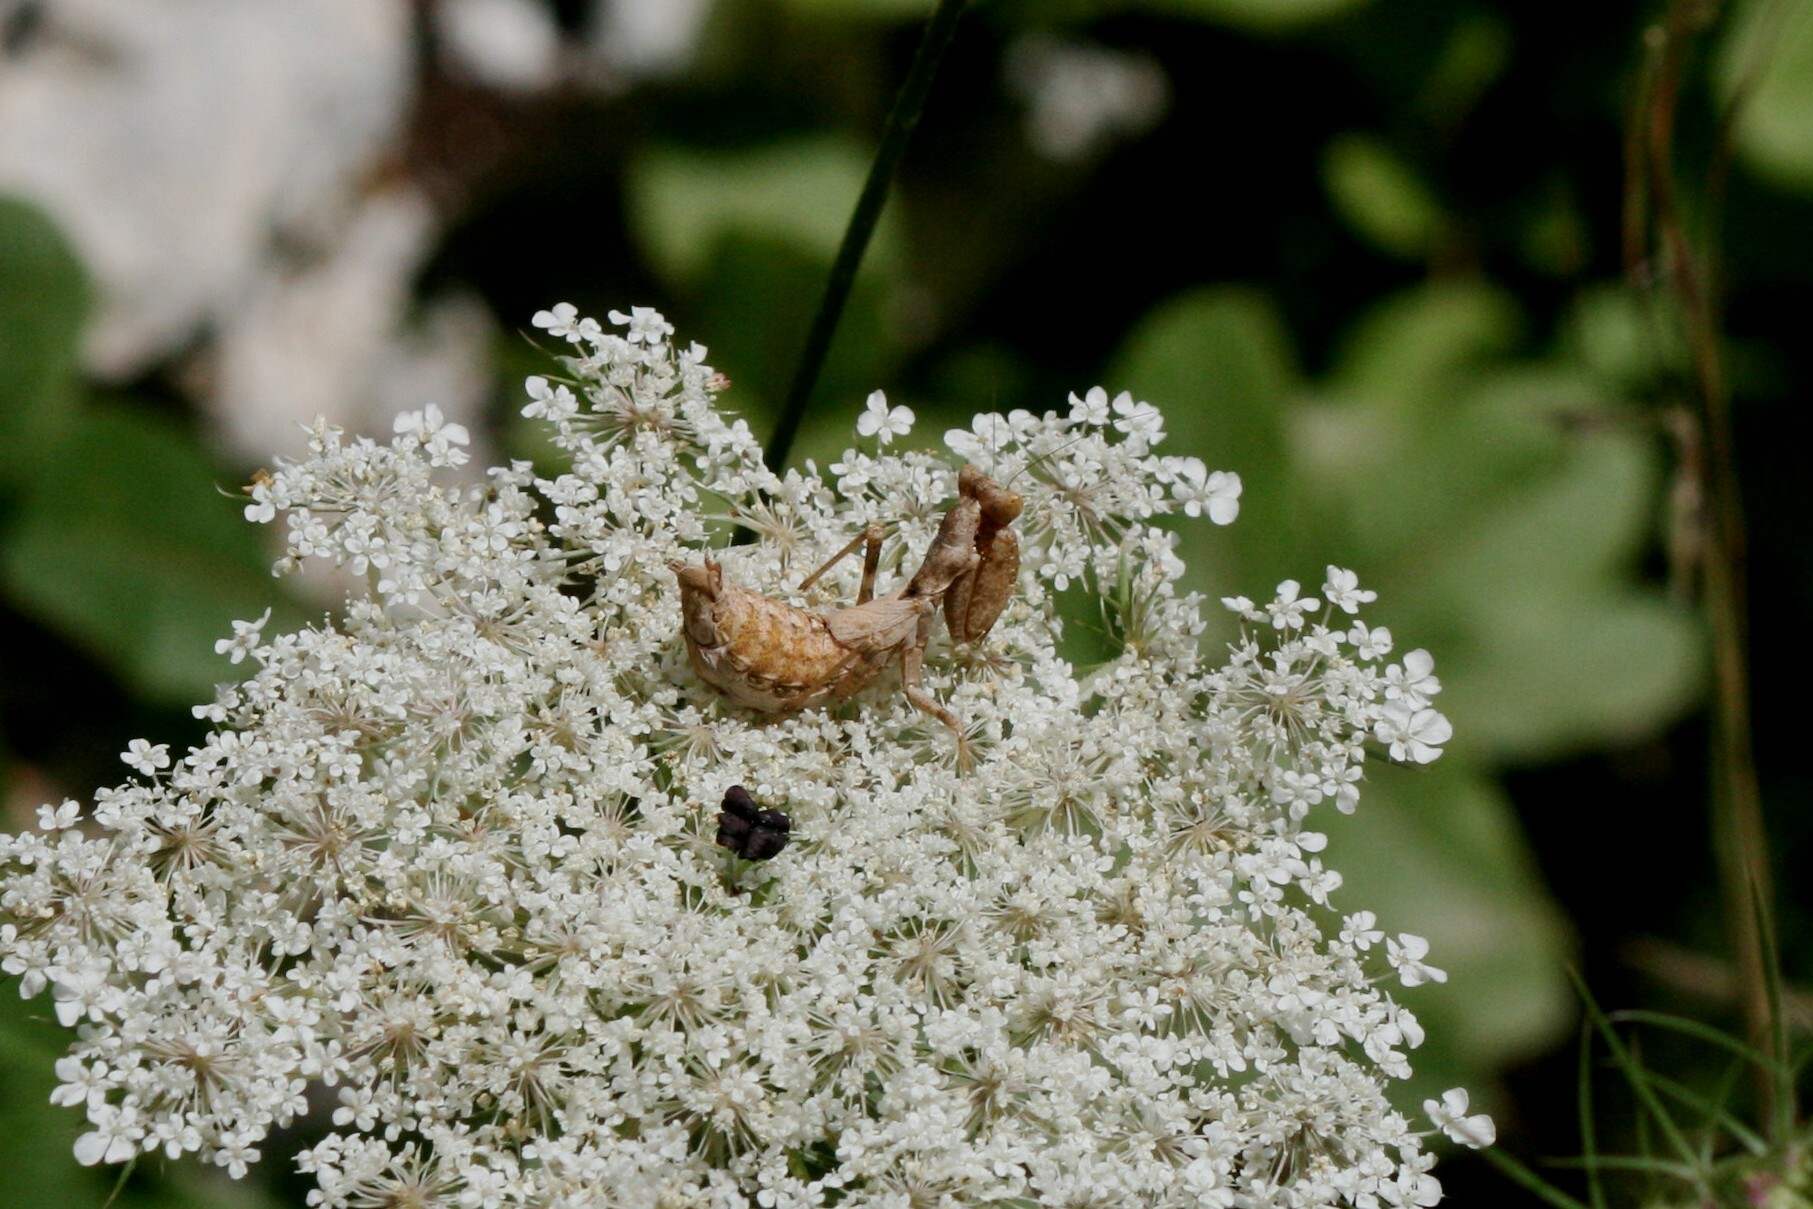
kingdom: Animalia
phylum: Arthropoda
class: Insecta
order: Mantodea
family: Amelidae
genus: Ameles
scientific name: Ameles spallanzania
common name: European dwarf mantis
